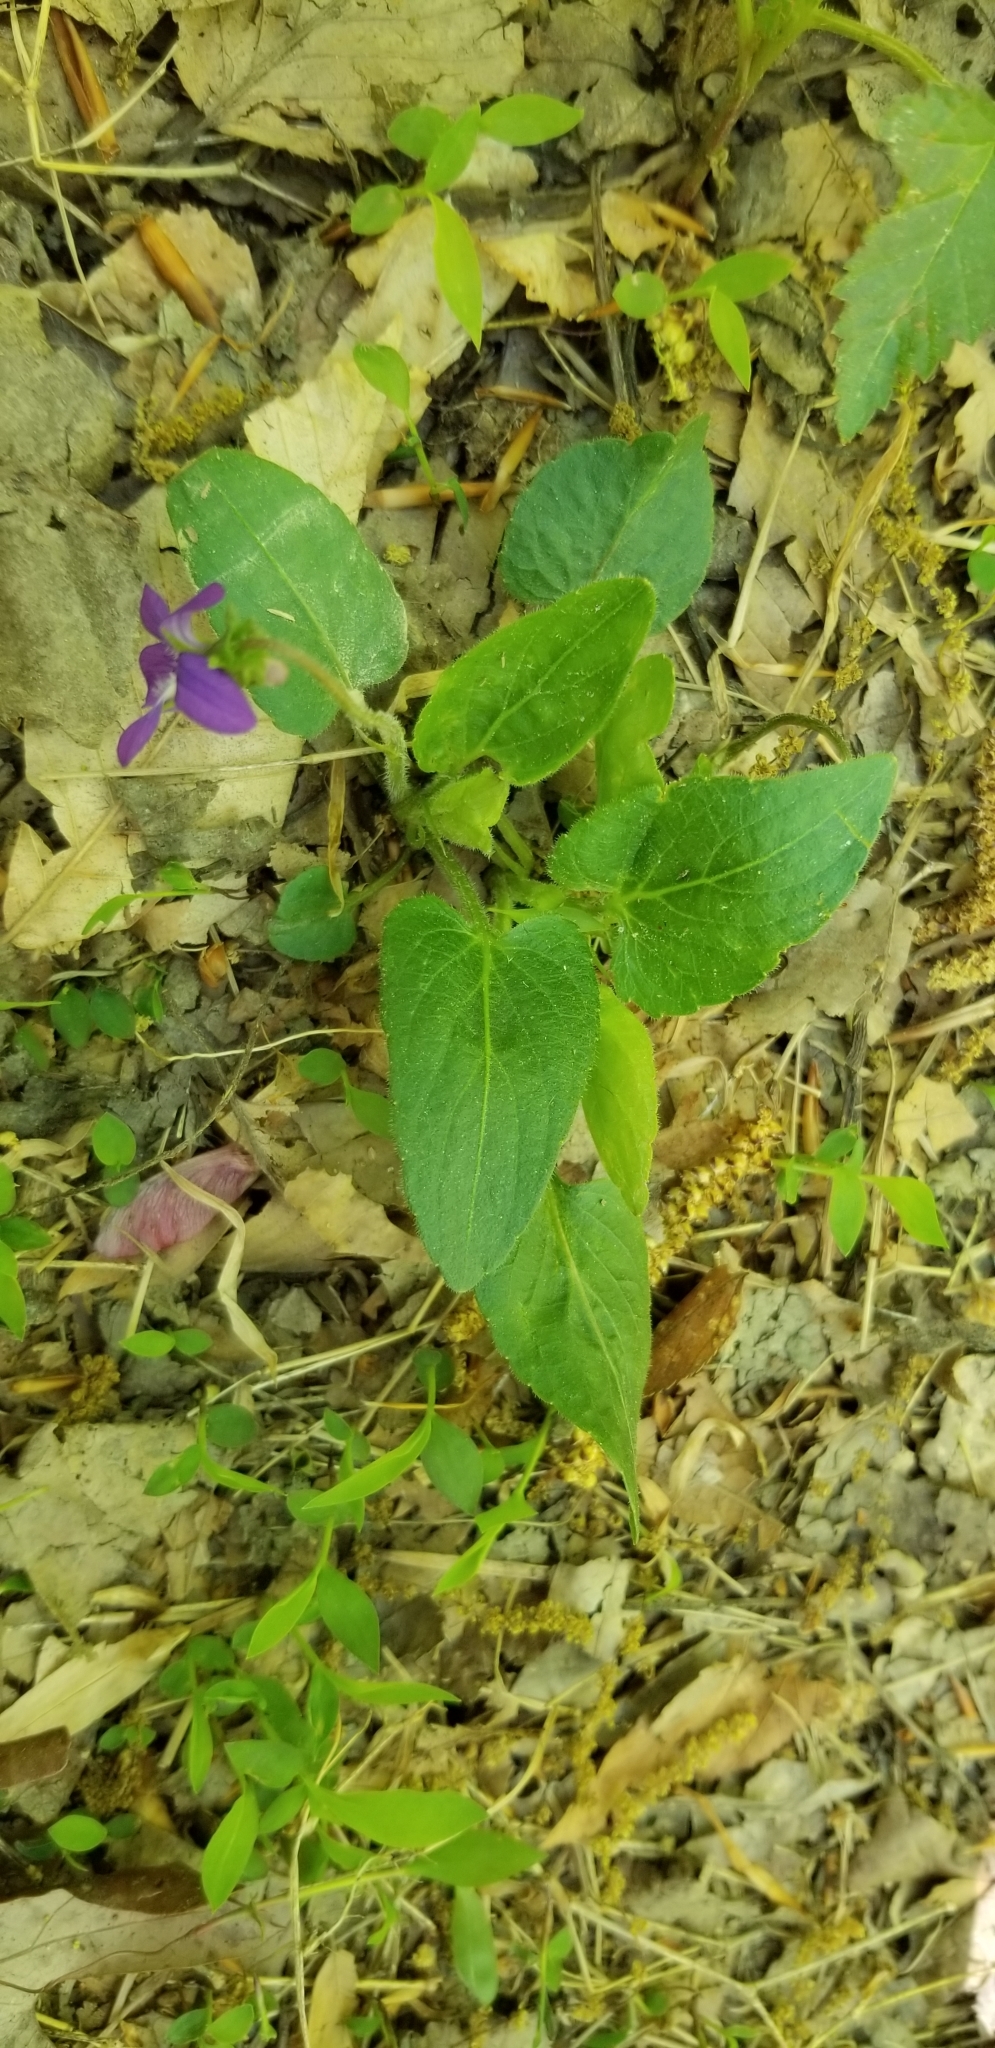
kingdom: Plantae
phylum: Tracheophyta
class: Magnoliopsida
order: Malpighiales
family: Violaceae
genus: Viola
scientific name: Viola sagittata
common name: Arrowhead violet
